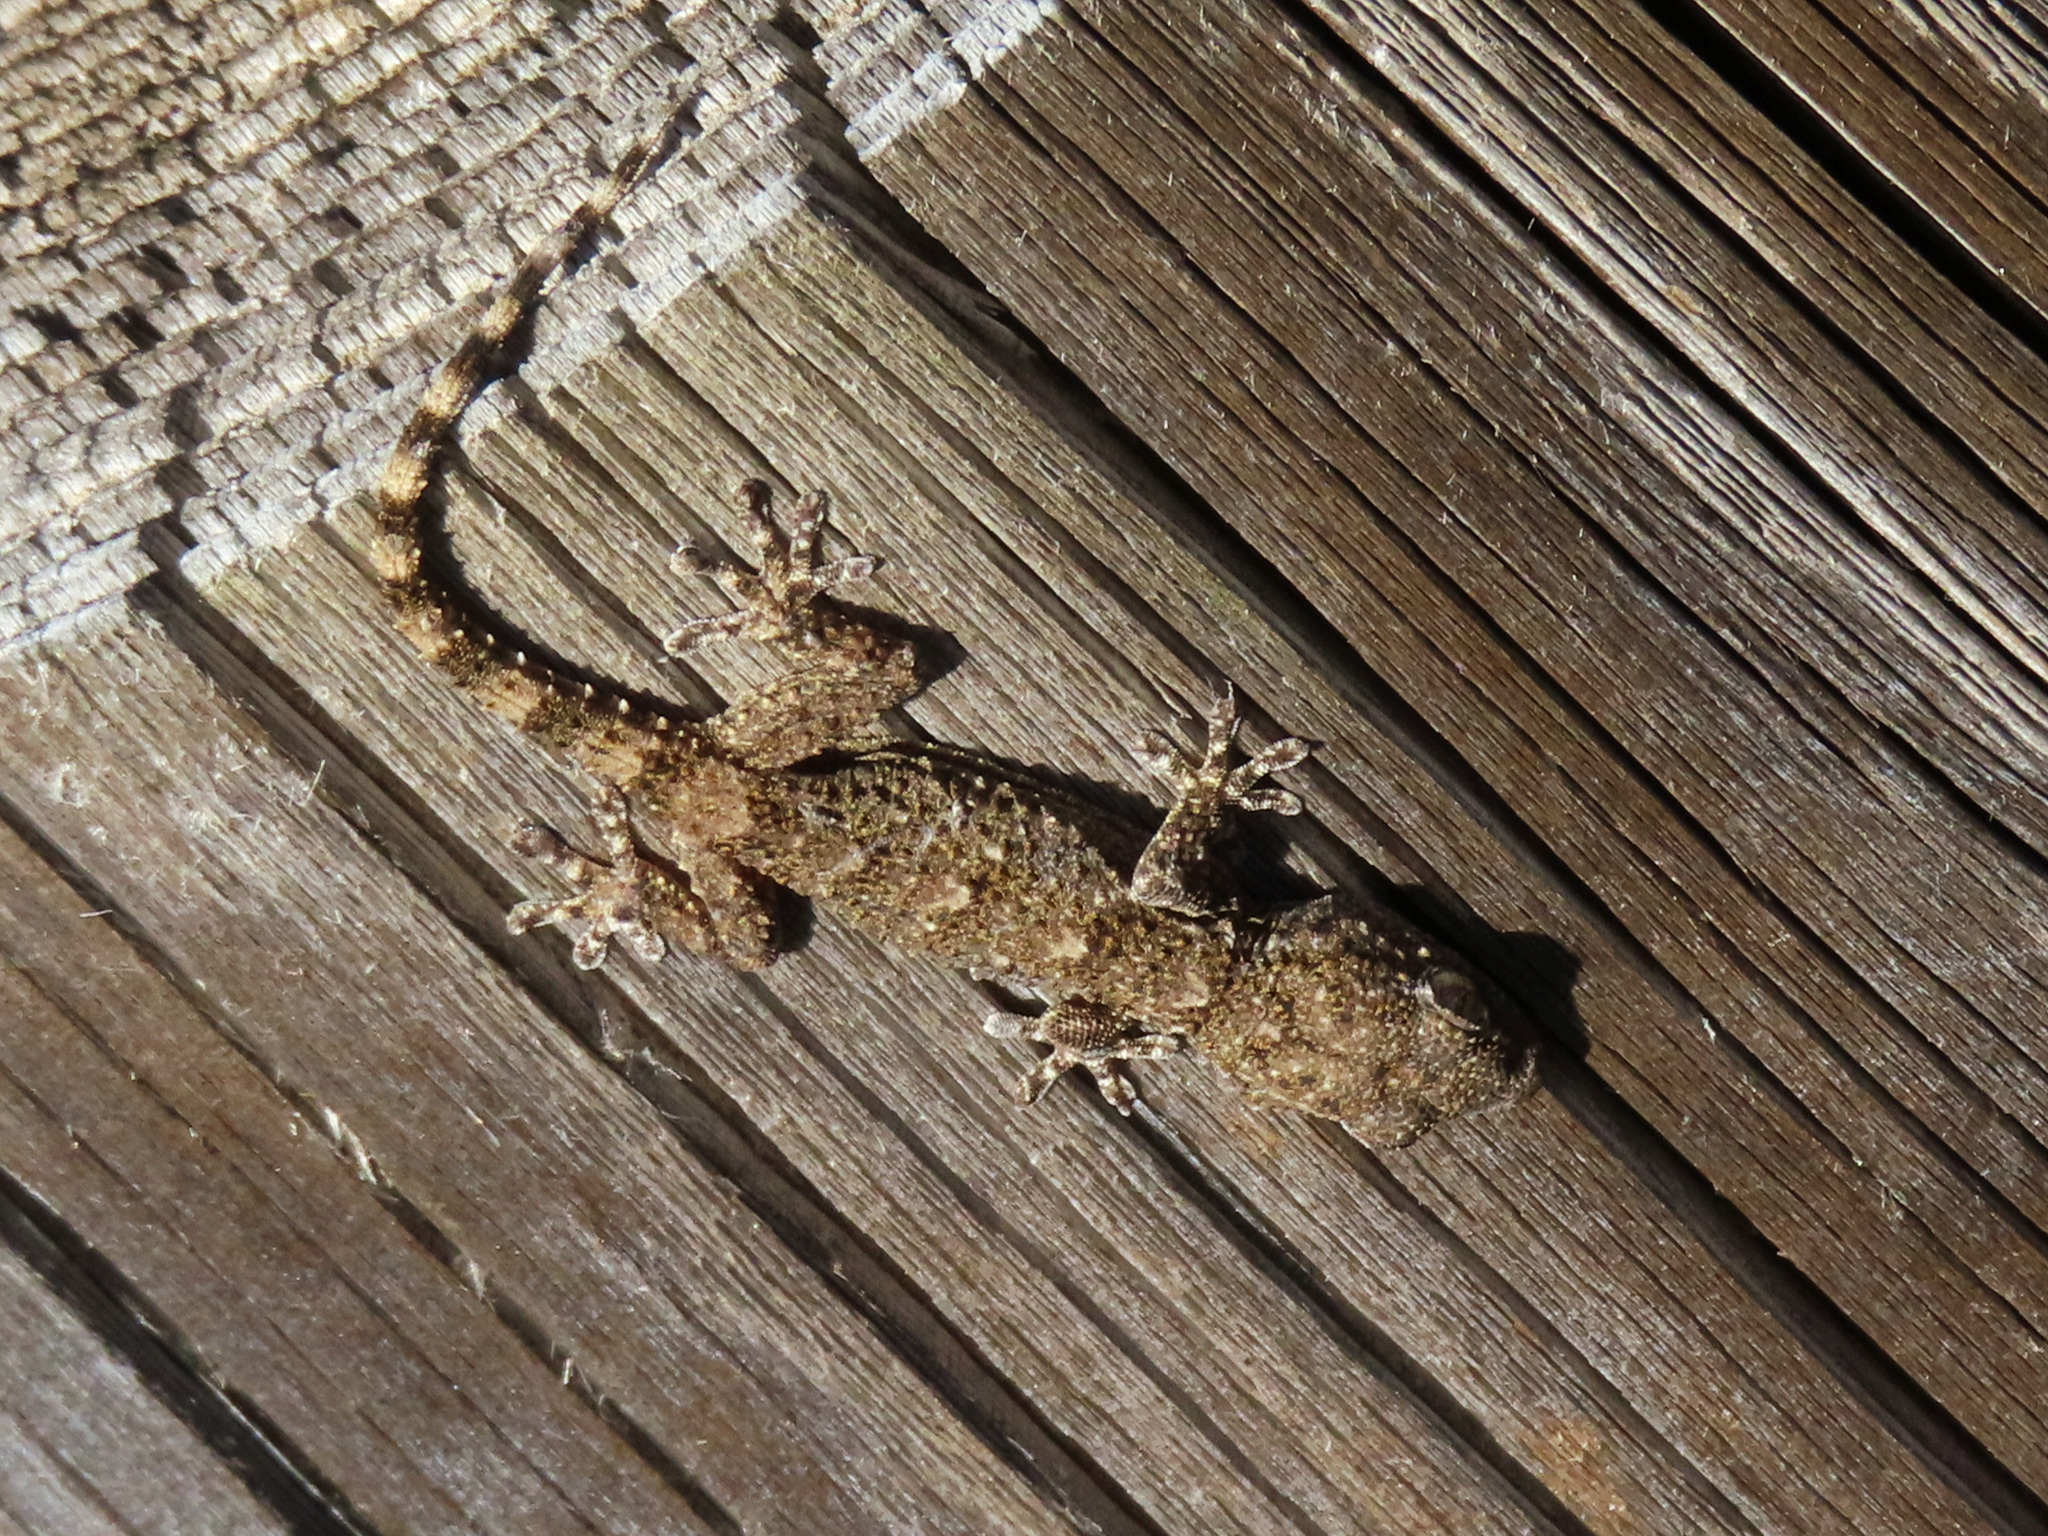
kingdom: Animalia
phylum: Chordata
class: Squamata
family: Phyllodactylidae
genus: Tarentola
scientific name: Tarentola mauritanica
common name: Moorish gecko
